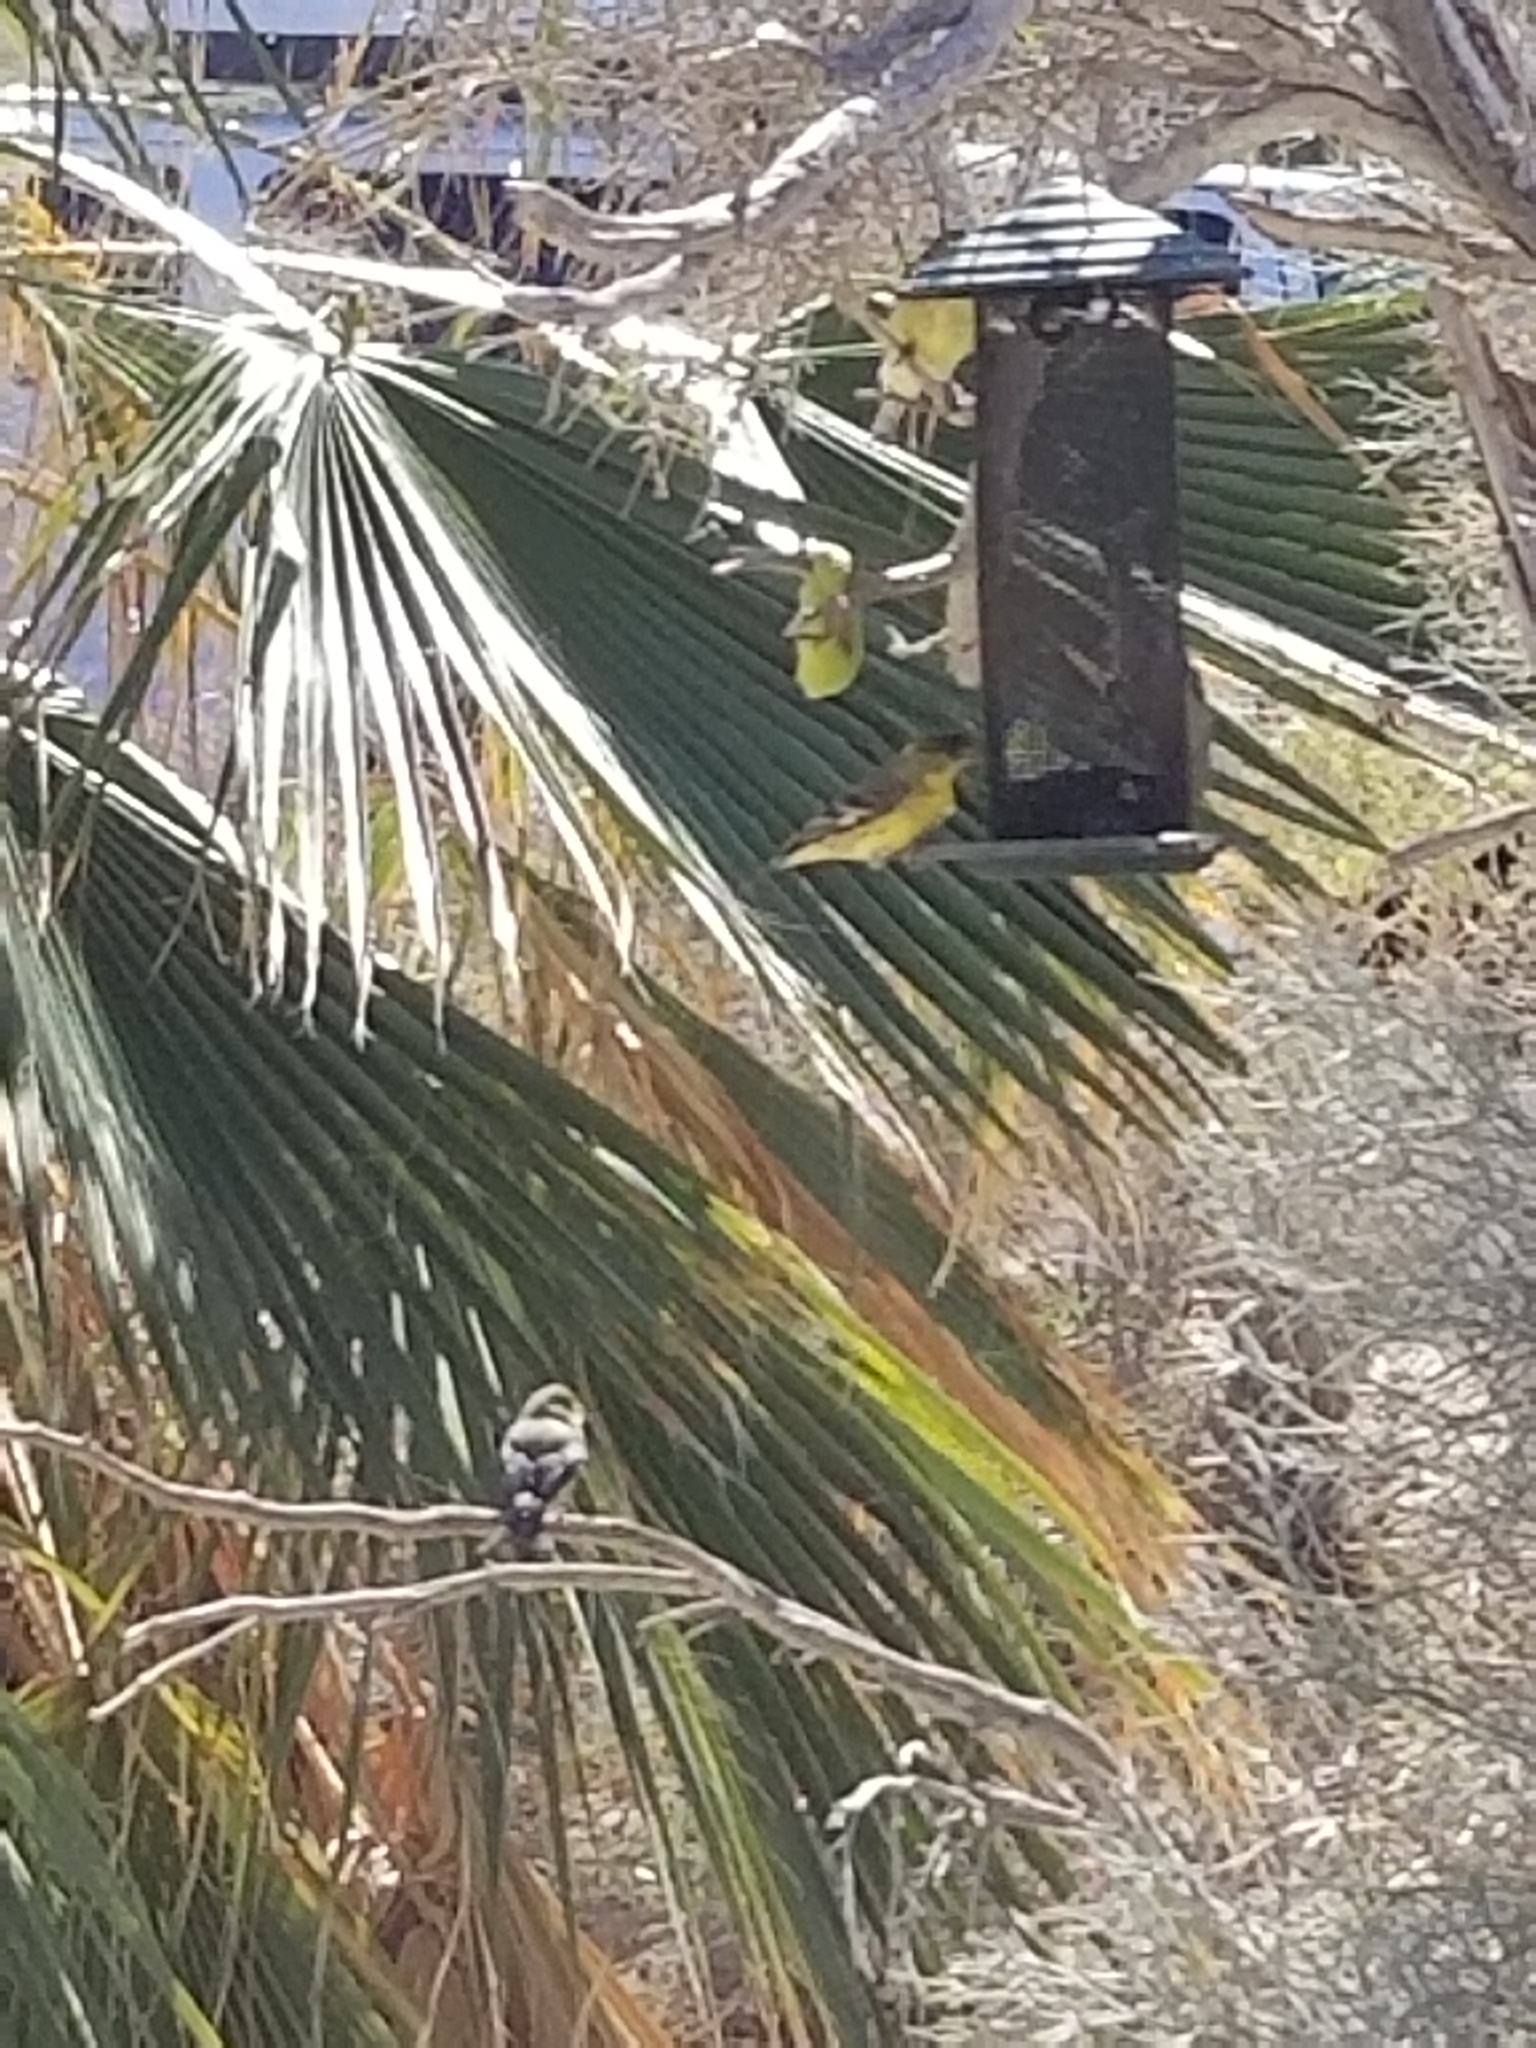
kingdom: Animalia
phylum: Chordata
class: Aves
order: Passeriformes
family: Fringillidae
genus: Spinus
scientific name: Spinus psaltria
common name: Lesser goldfinch
